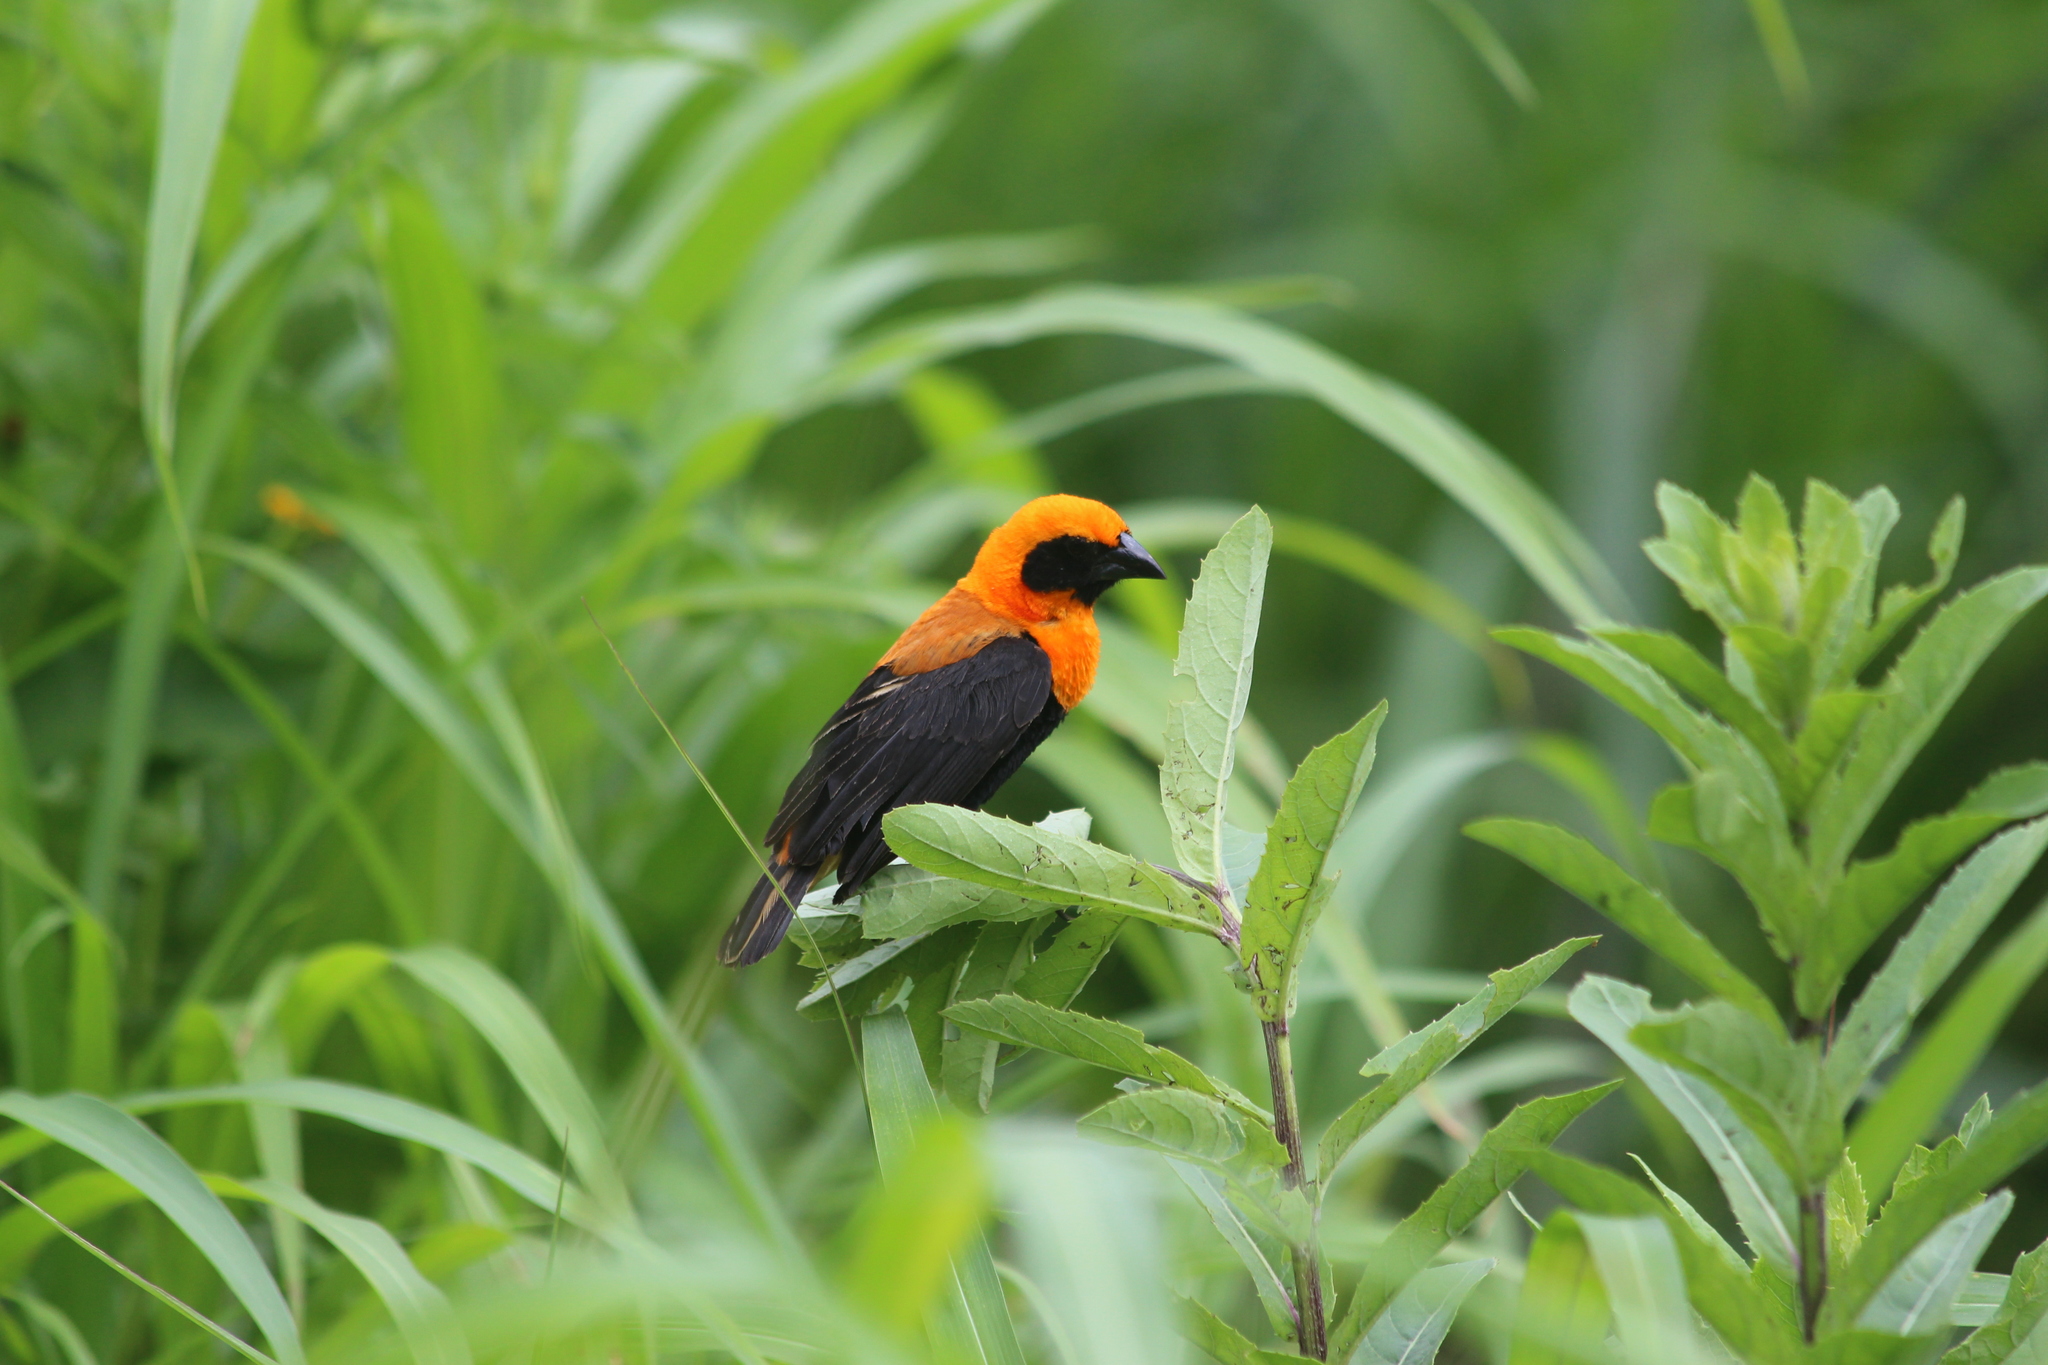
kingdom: Animalia
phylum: Chordata
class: Aves
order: Passeriformes
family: Ploceidae
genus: Euplectes
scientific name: Euplectes hordeaceus
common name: Black-winged red bishop
